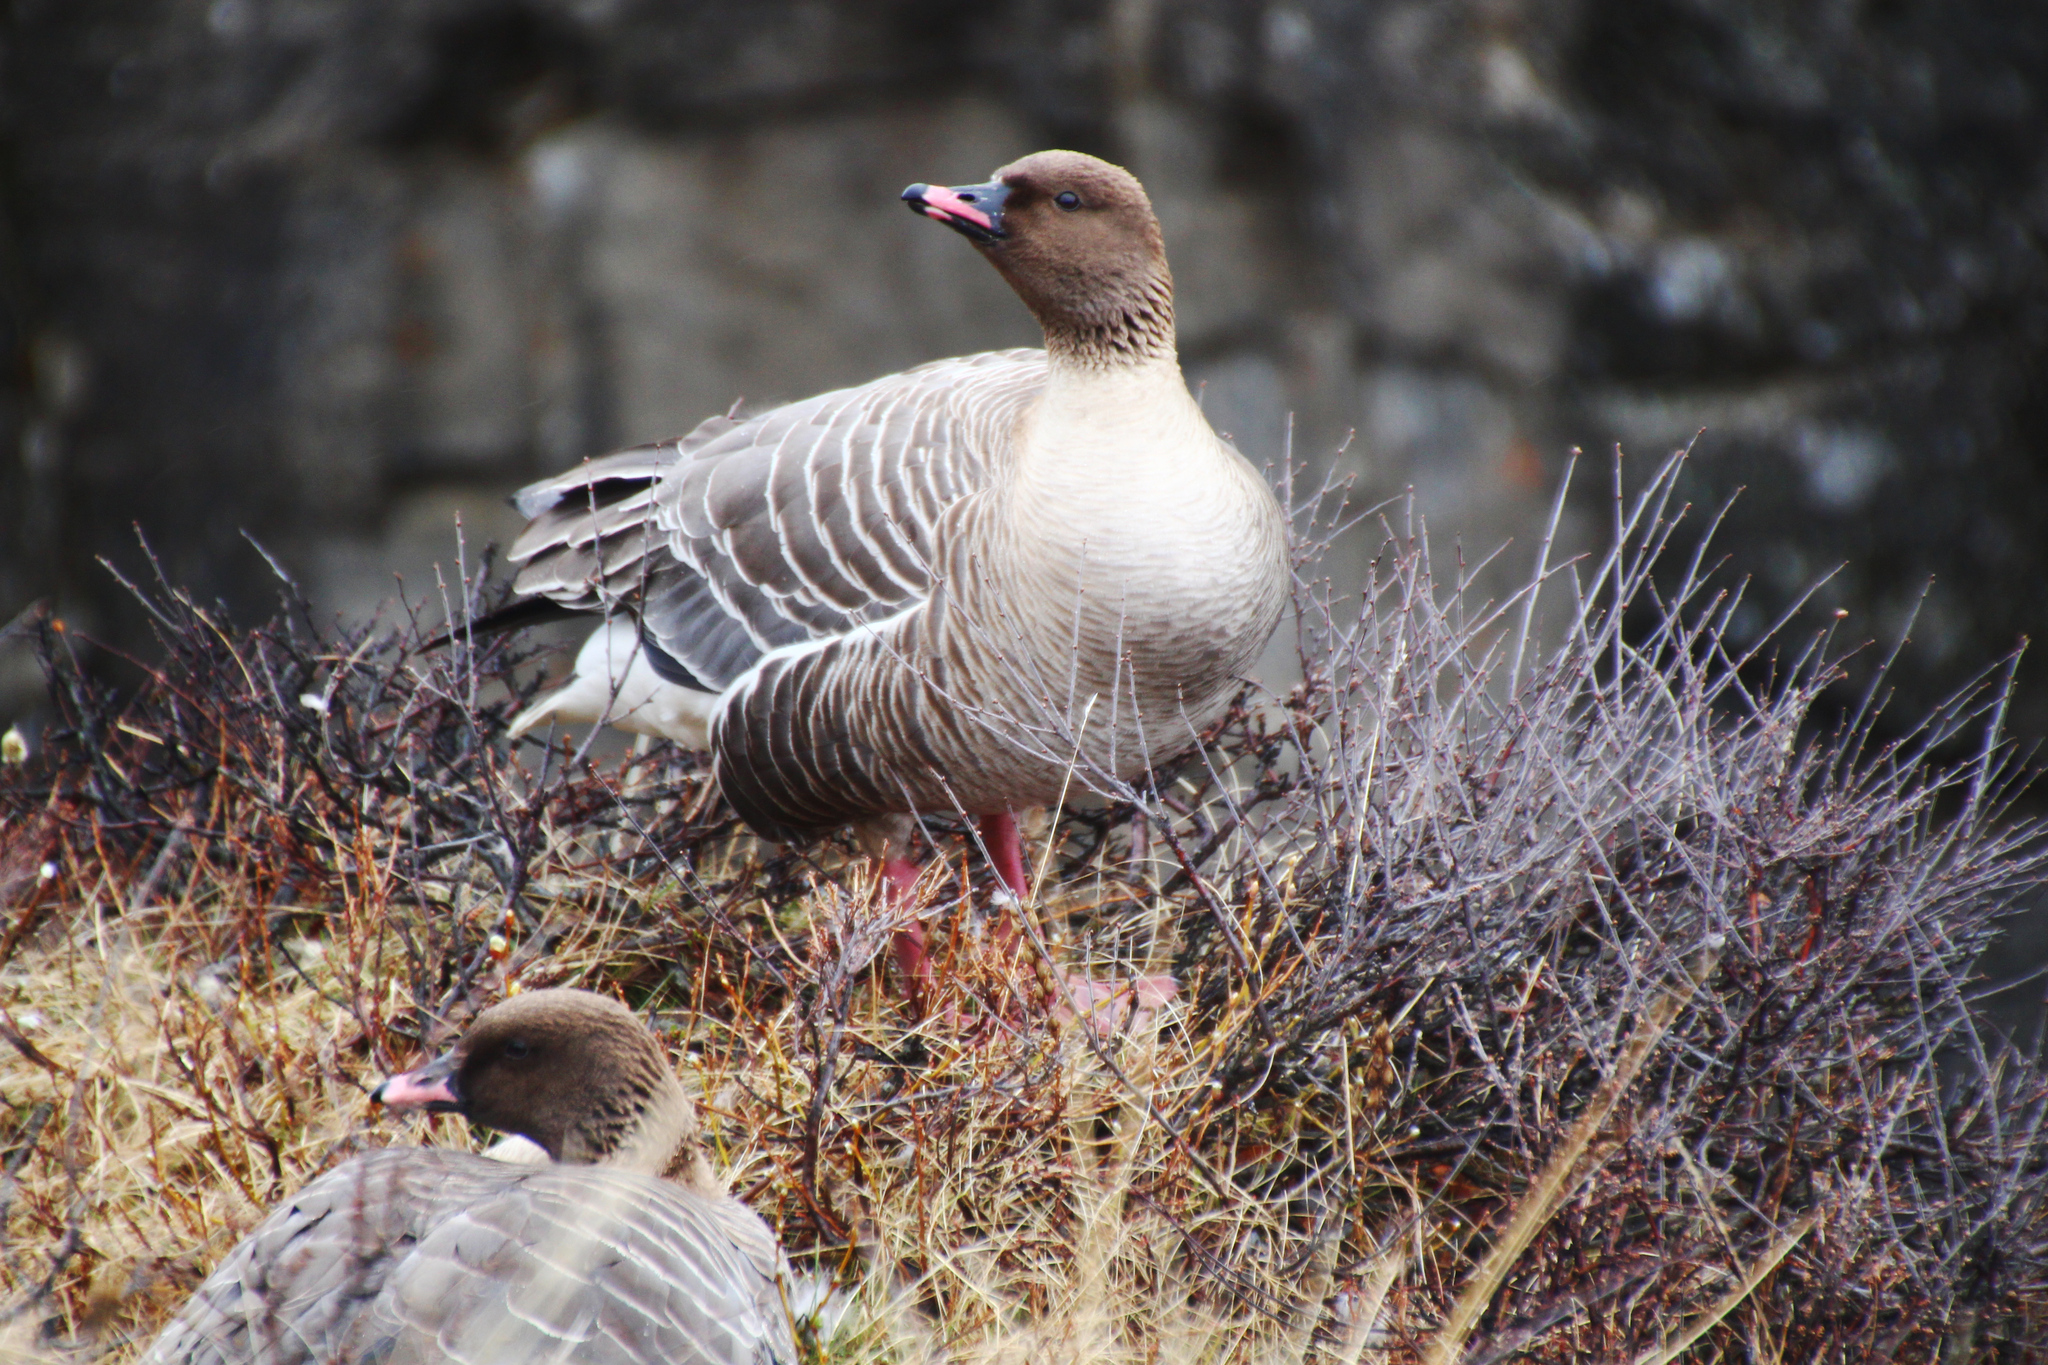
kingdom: Animalia
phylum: Chordata
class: Aves
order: Anseriformes
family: Anatidae
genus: Anser
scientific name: Anser brachyrhynchus
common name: Pink-footed goose
